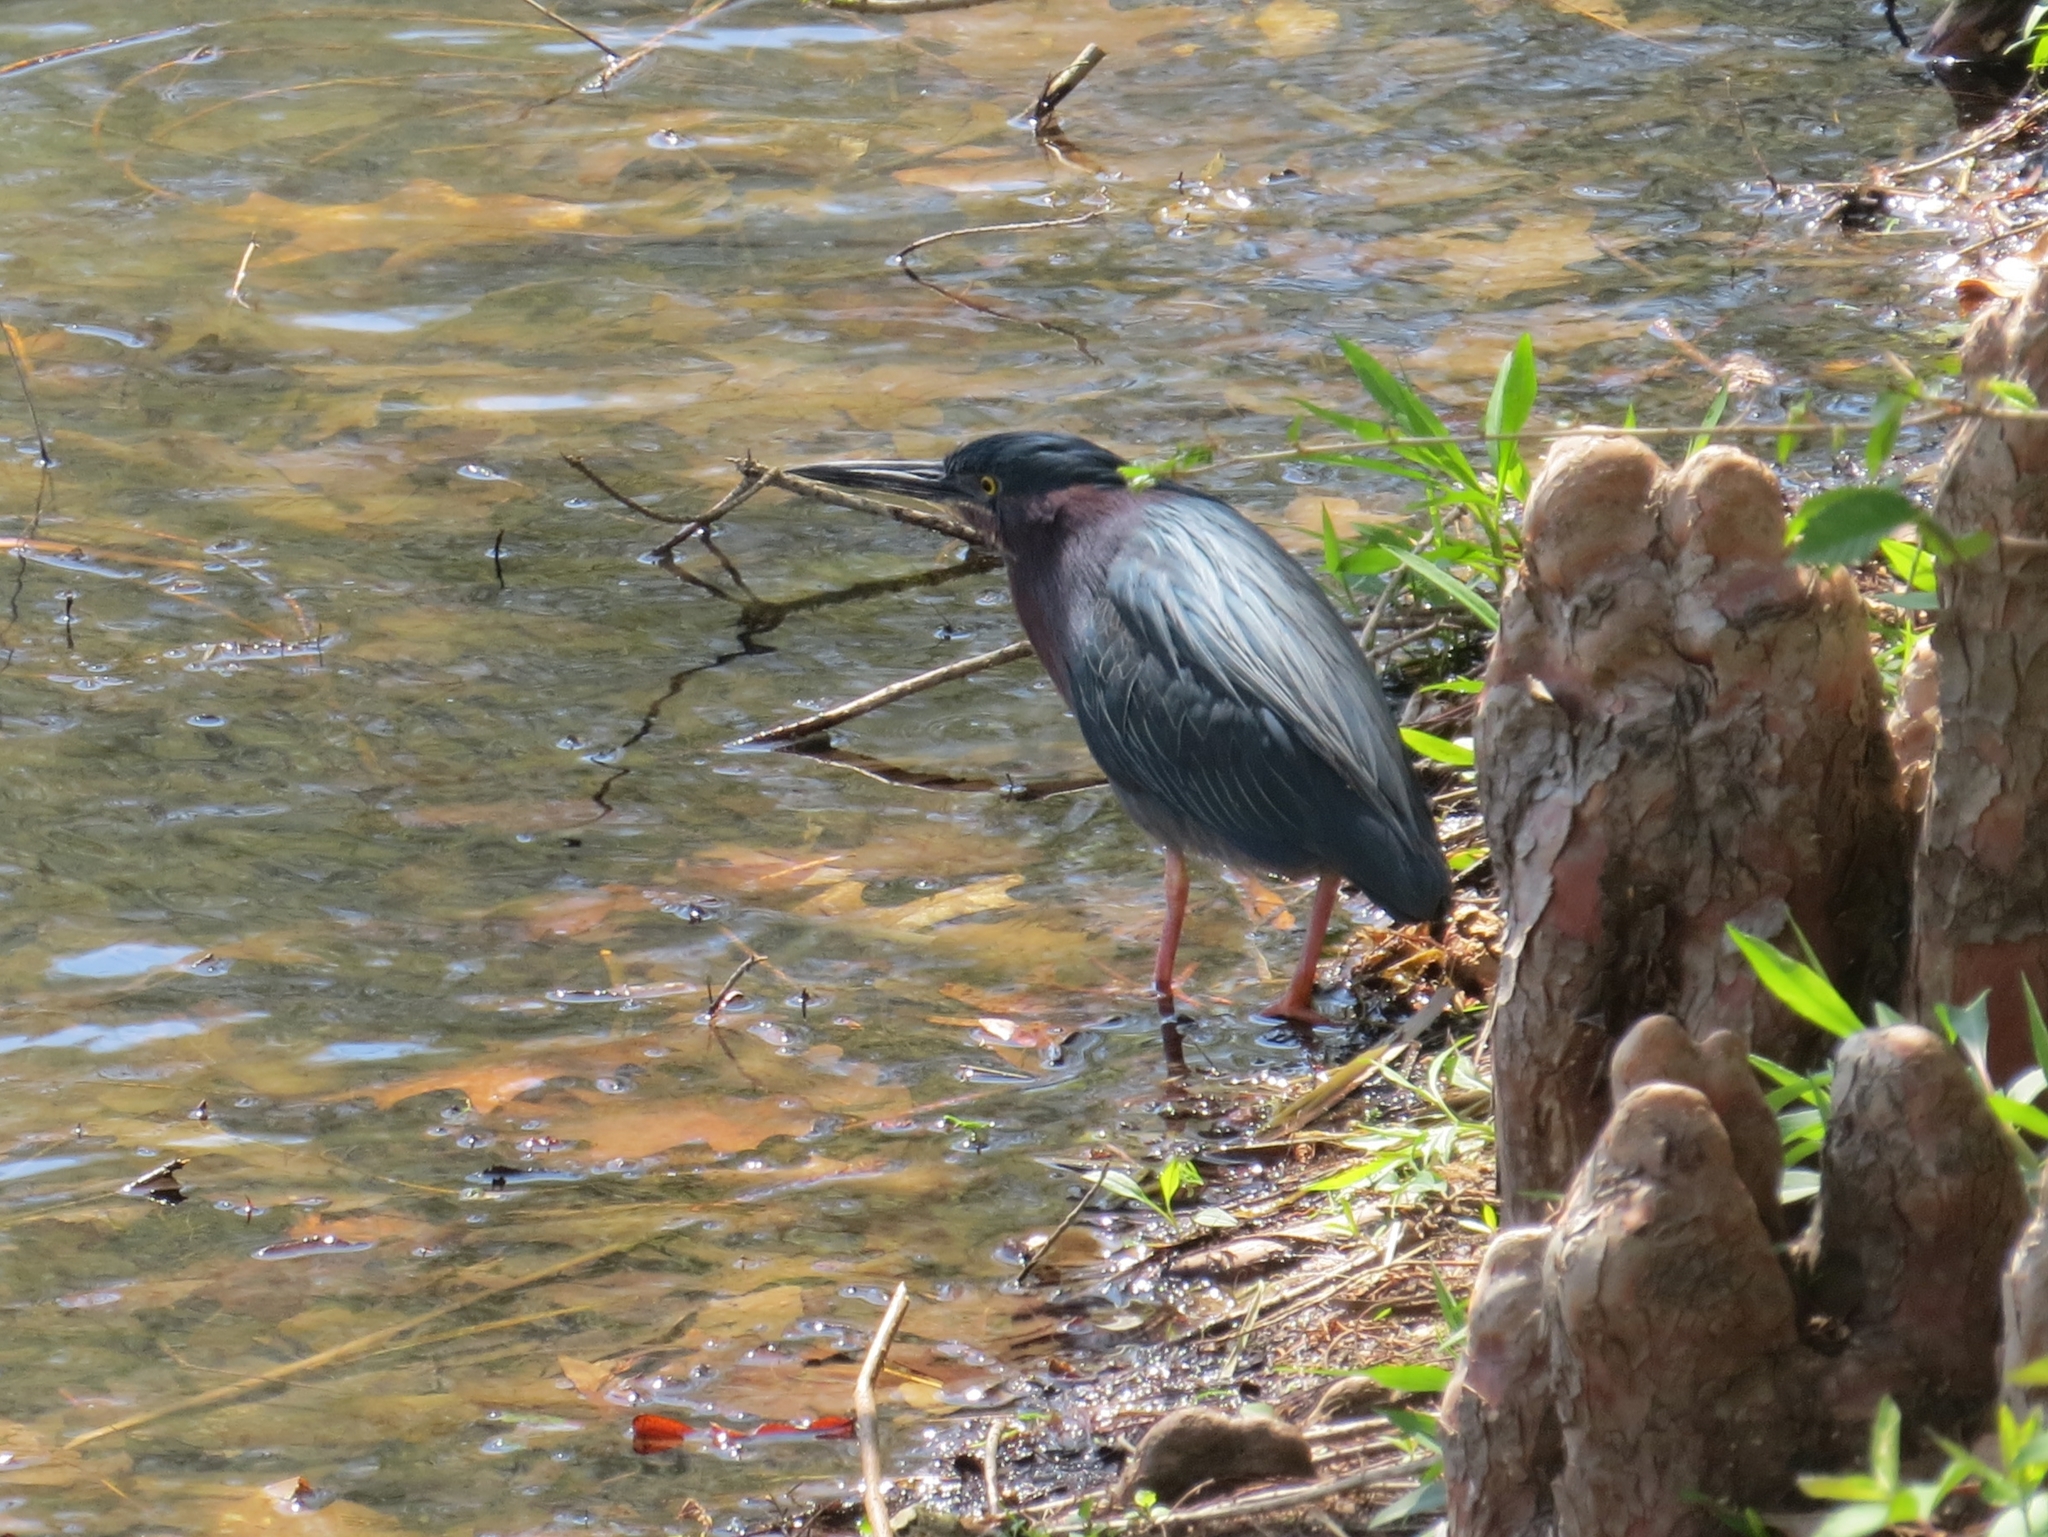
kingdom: Animalia
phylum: Chordata
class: Aves
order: Pelecaniformes
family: Ardeidae
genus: Butorides
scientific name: Butorides virescens
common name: Green heron
